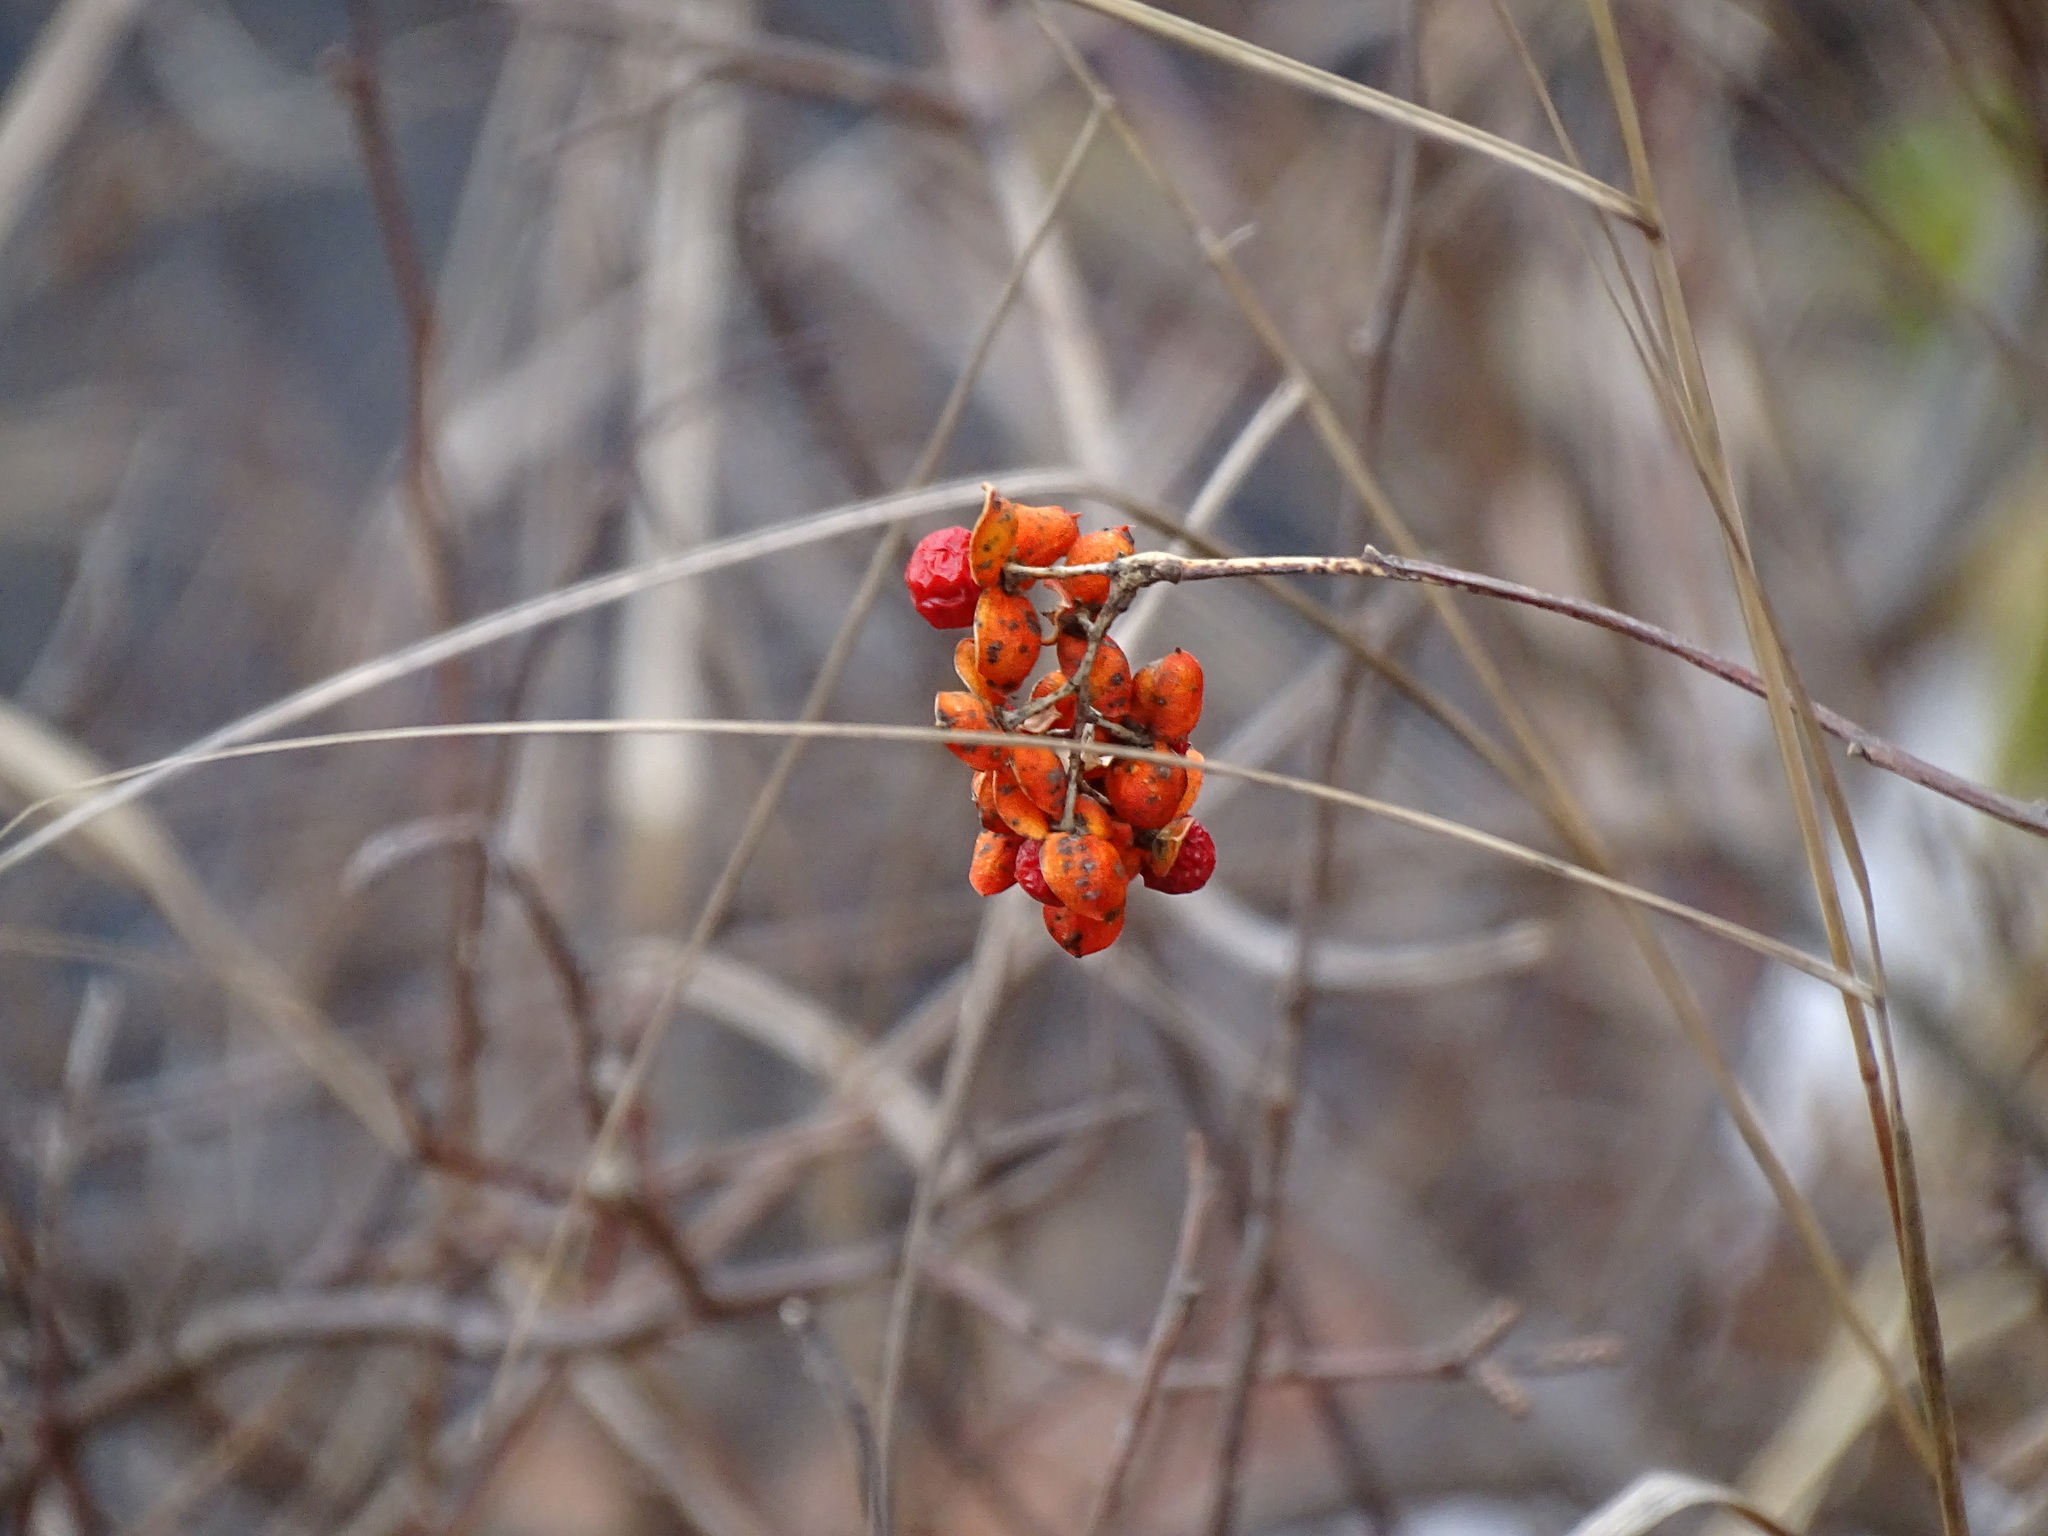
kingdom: Plantae
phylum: Tracheophyta
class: Magnoliopsida
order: Celastrales
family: Celastraceae
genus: Celastrus
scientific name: Celastrus scandens
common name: American bittersweet
